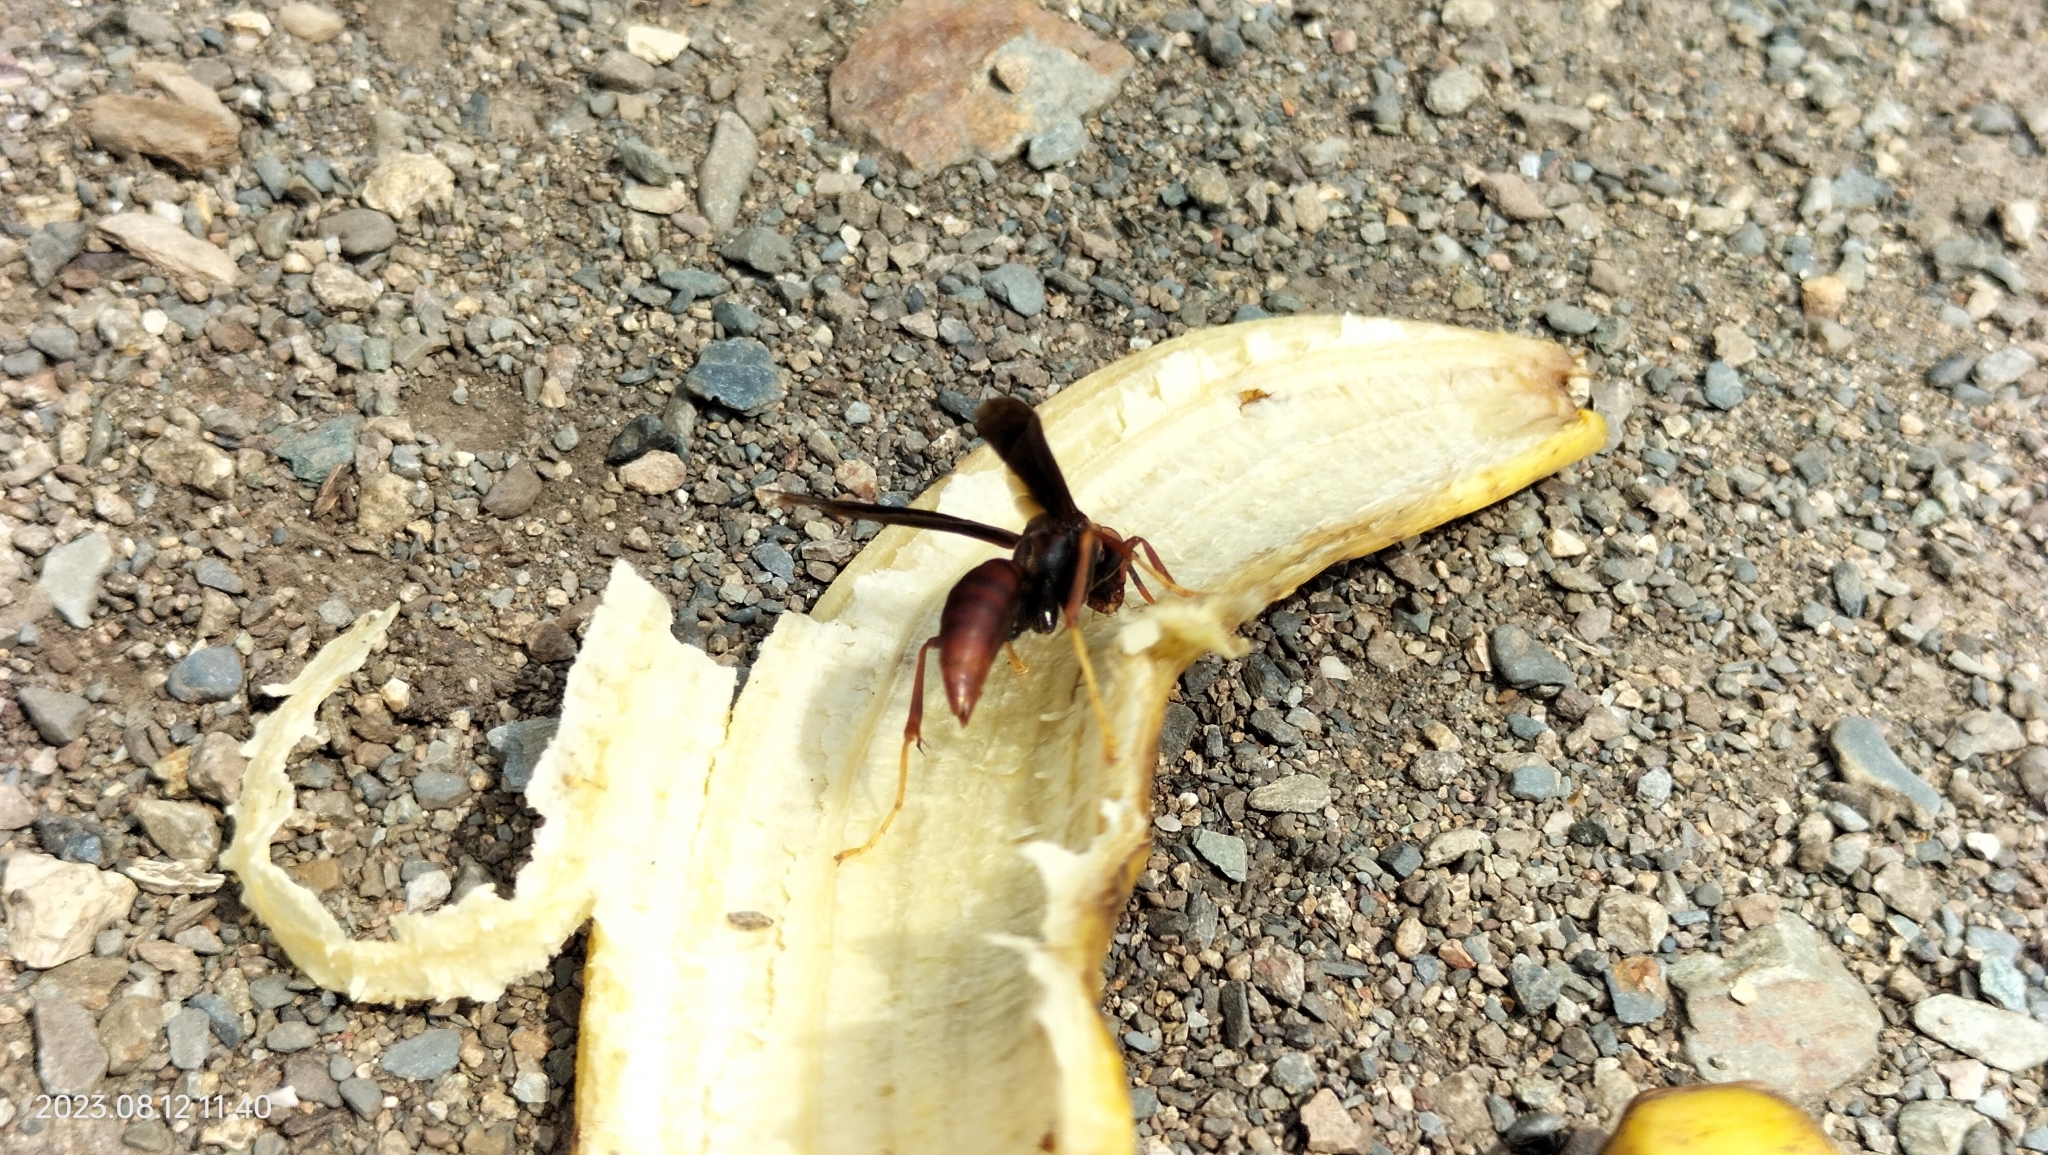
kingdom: Animalia
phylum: Arthropoda
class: Insecta
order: Hymenoptera
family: Eumenidae
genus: Polistes
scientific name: Polistes lanio
